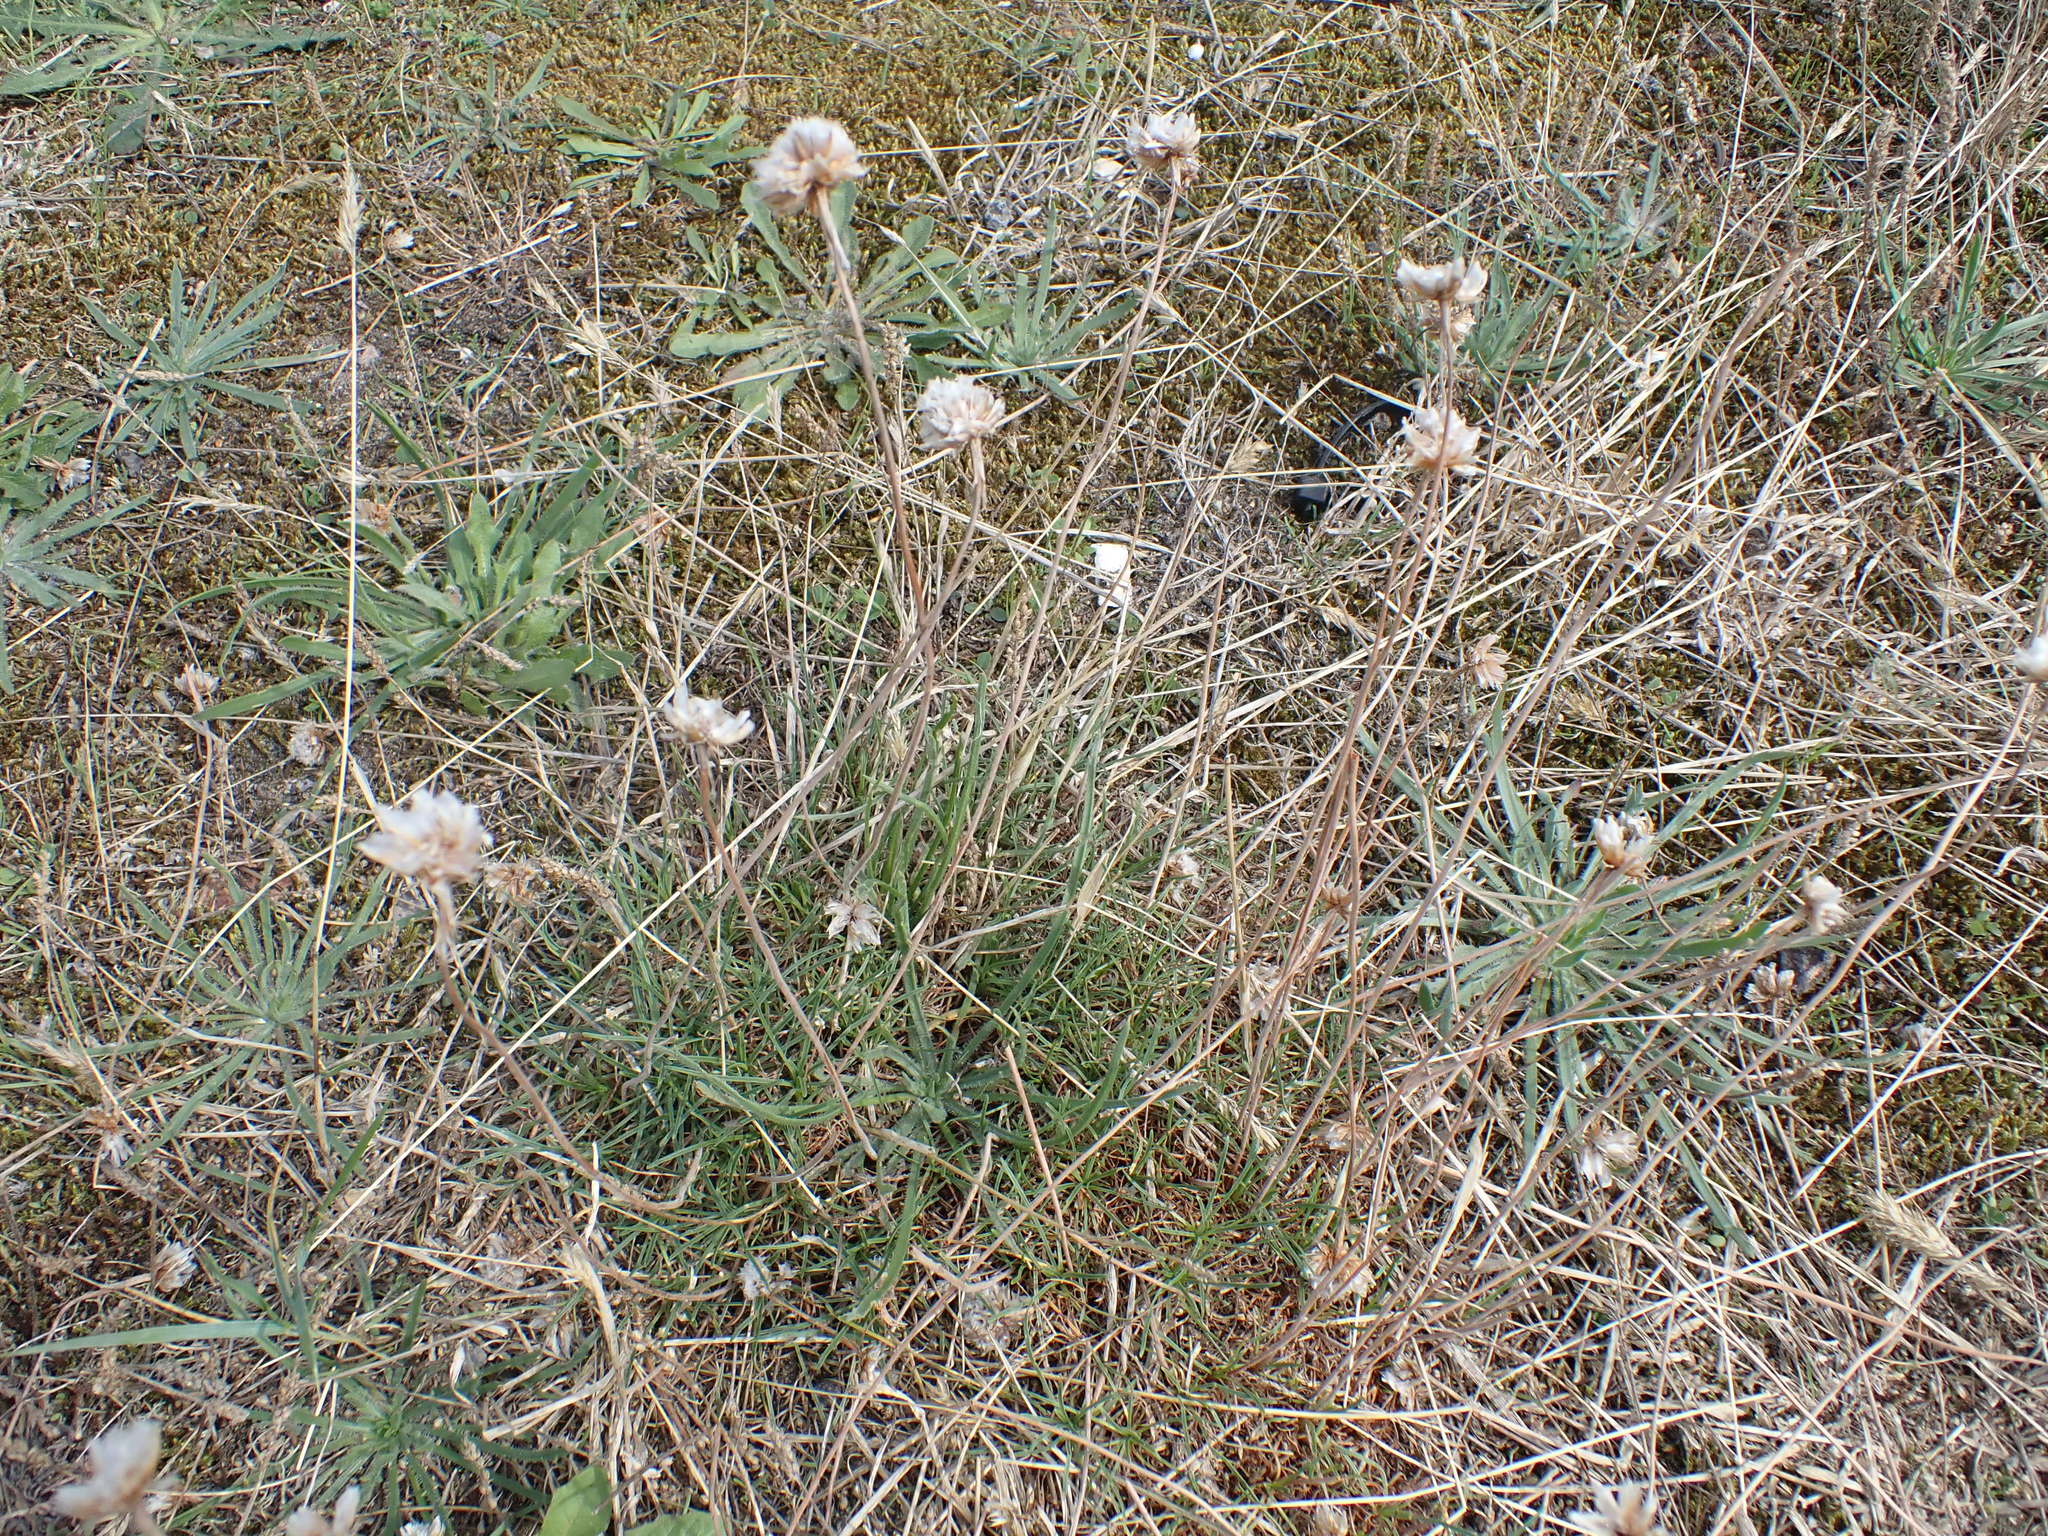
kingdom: Plantae
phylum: Tracheophyta
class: Magnoliopsida
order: Caryophyllales
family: Plumbaginaceae
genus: Armeria
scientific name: Armeria maritima
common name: Thrift
